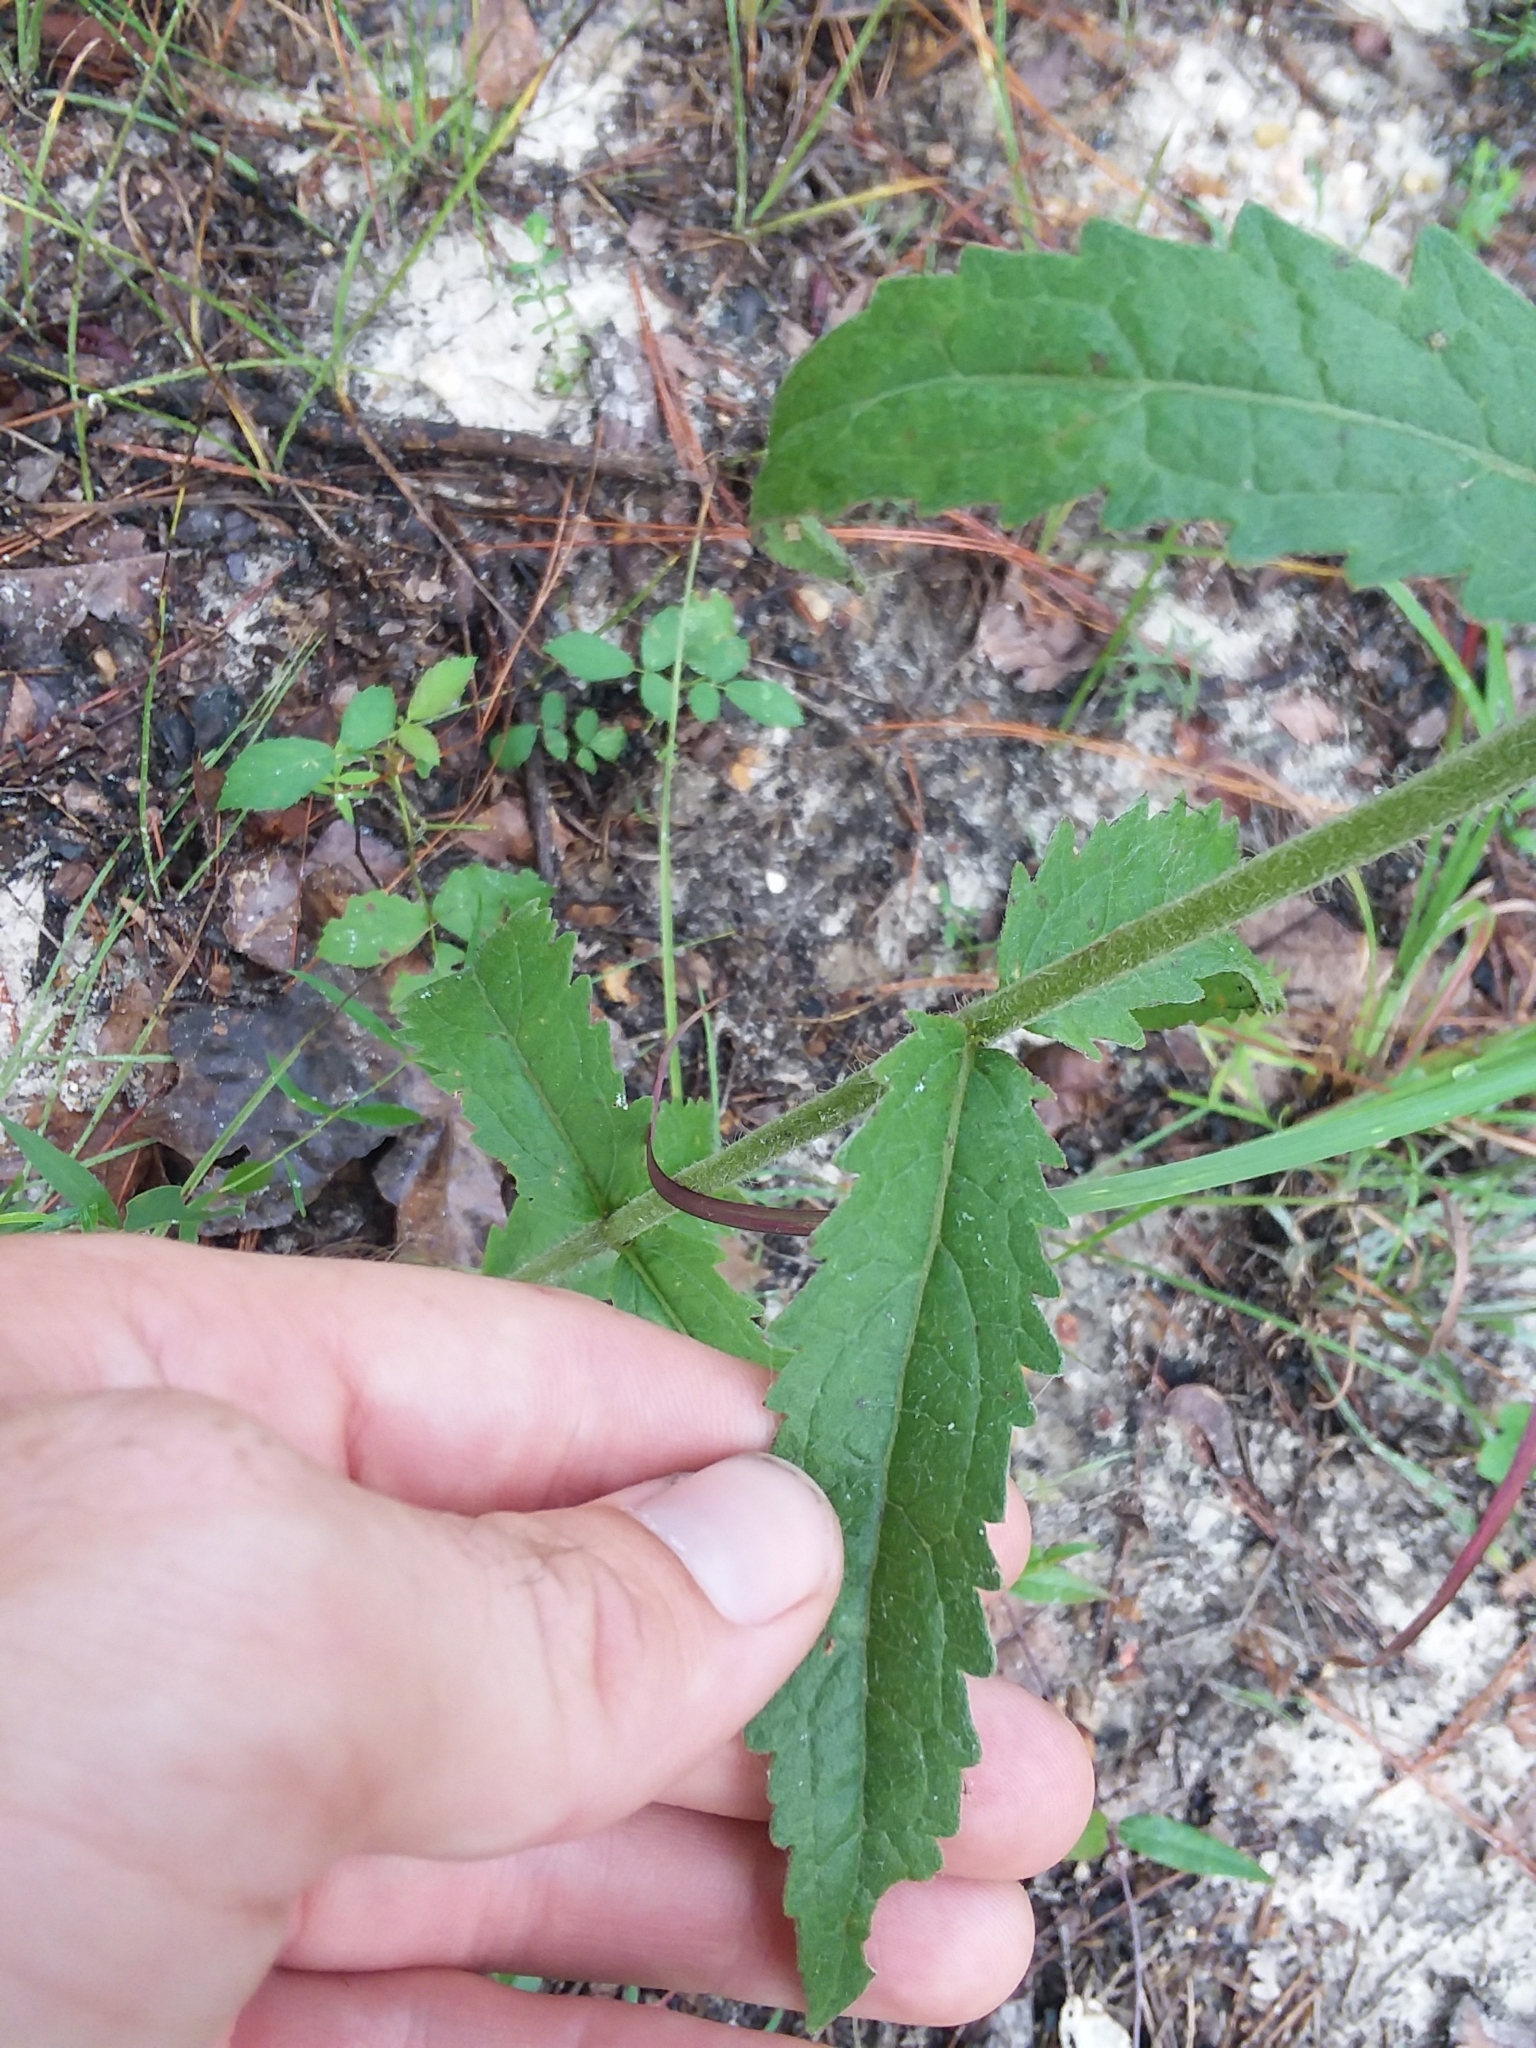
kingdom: Plantae
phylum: Tracheophyta
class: Magnoliopsida
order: Asterales
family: Asteraceae
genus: Eupatorium
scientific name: Eupatorium album
